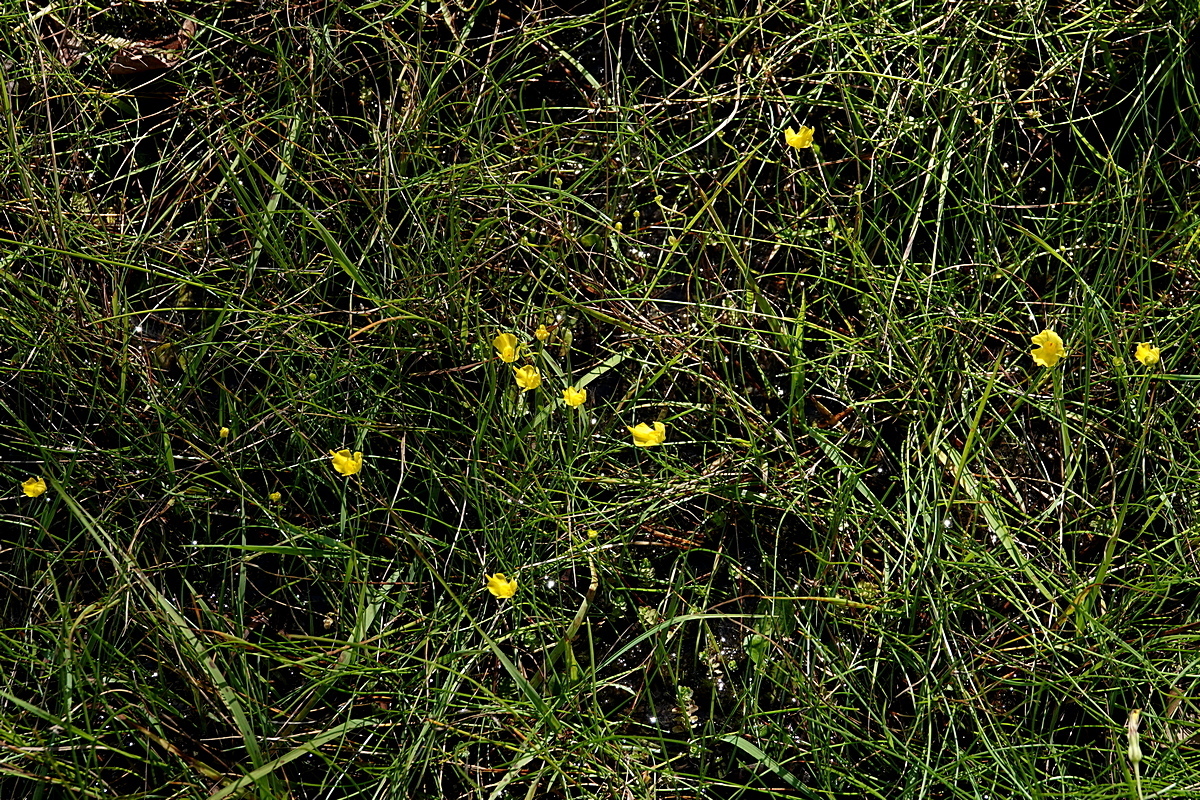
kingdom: Plantae
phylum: Tracheophyta
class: Magnoliopsida
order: Lamiales
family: Lentibulariaceae
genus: Utricularia
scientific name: Utricularia gibba
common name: Humped bladderwort
